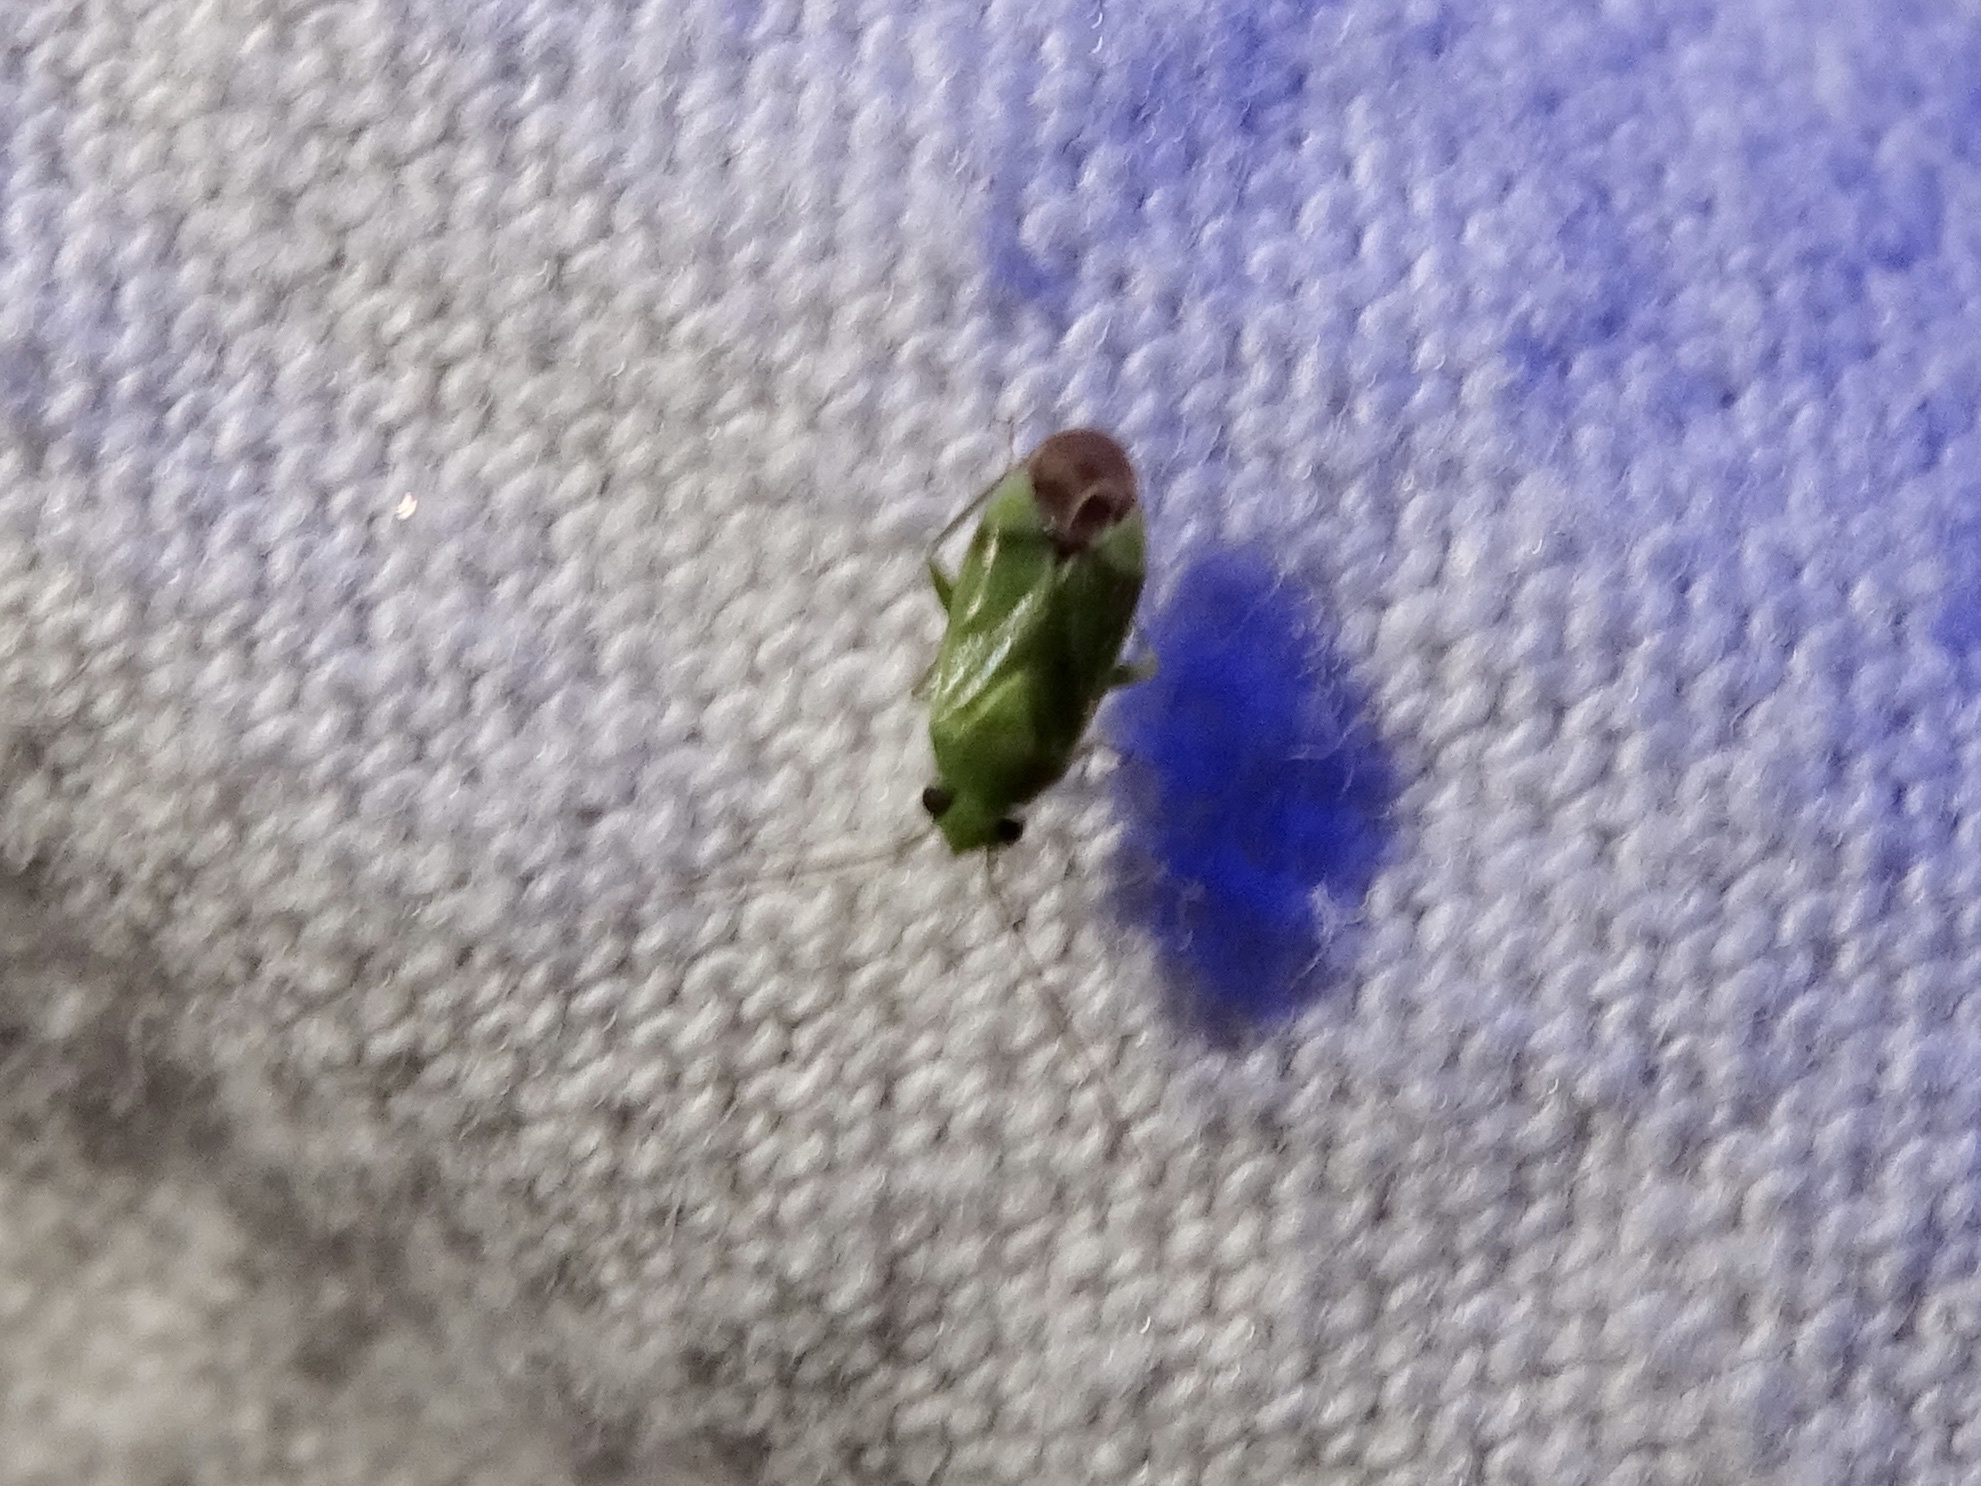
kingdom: Animalia
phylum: Arthropoda
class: Insecta
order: Hemiptera
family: Miridae
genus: Dichrooscytus
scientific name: Dichrooscytus
